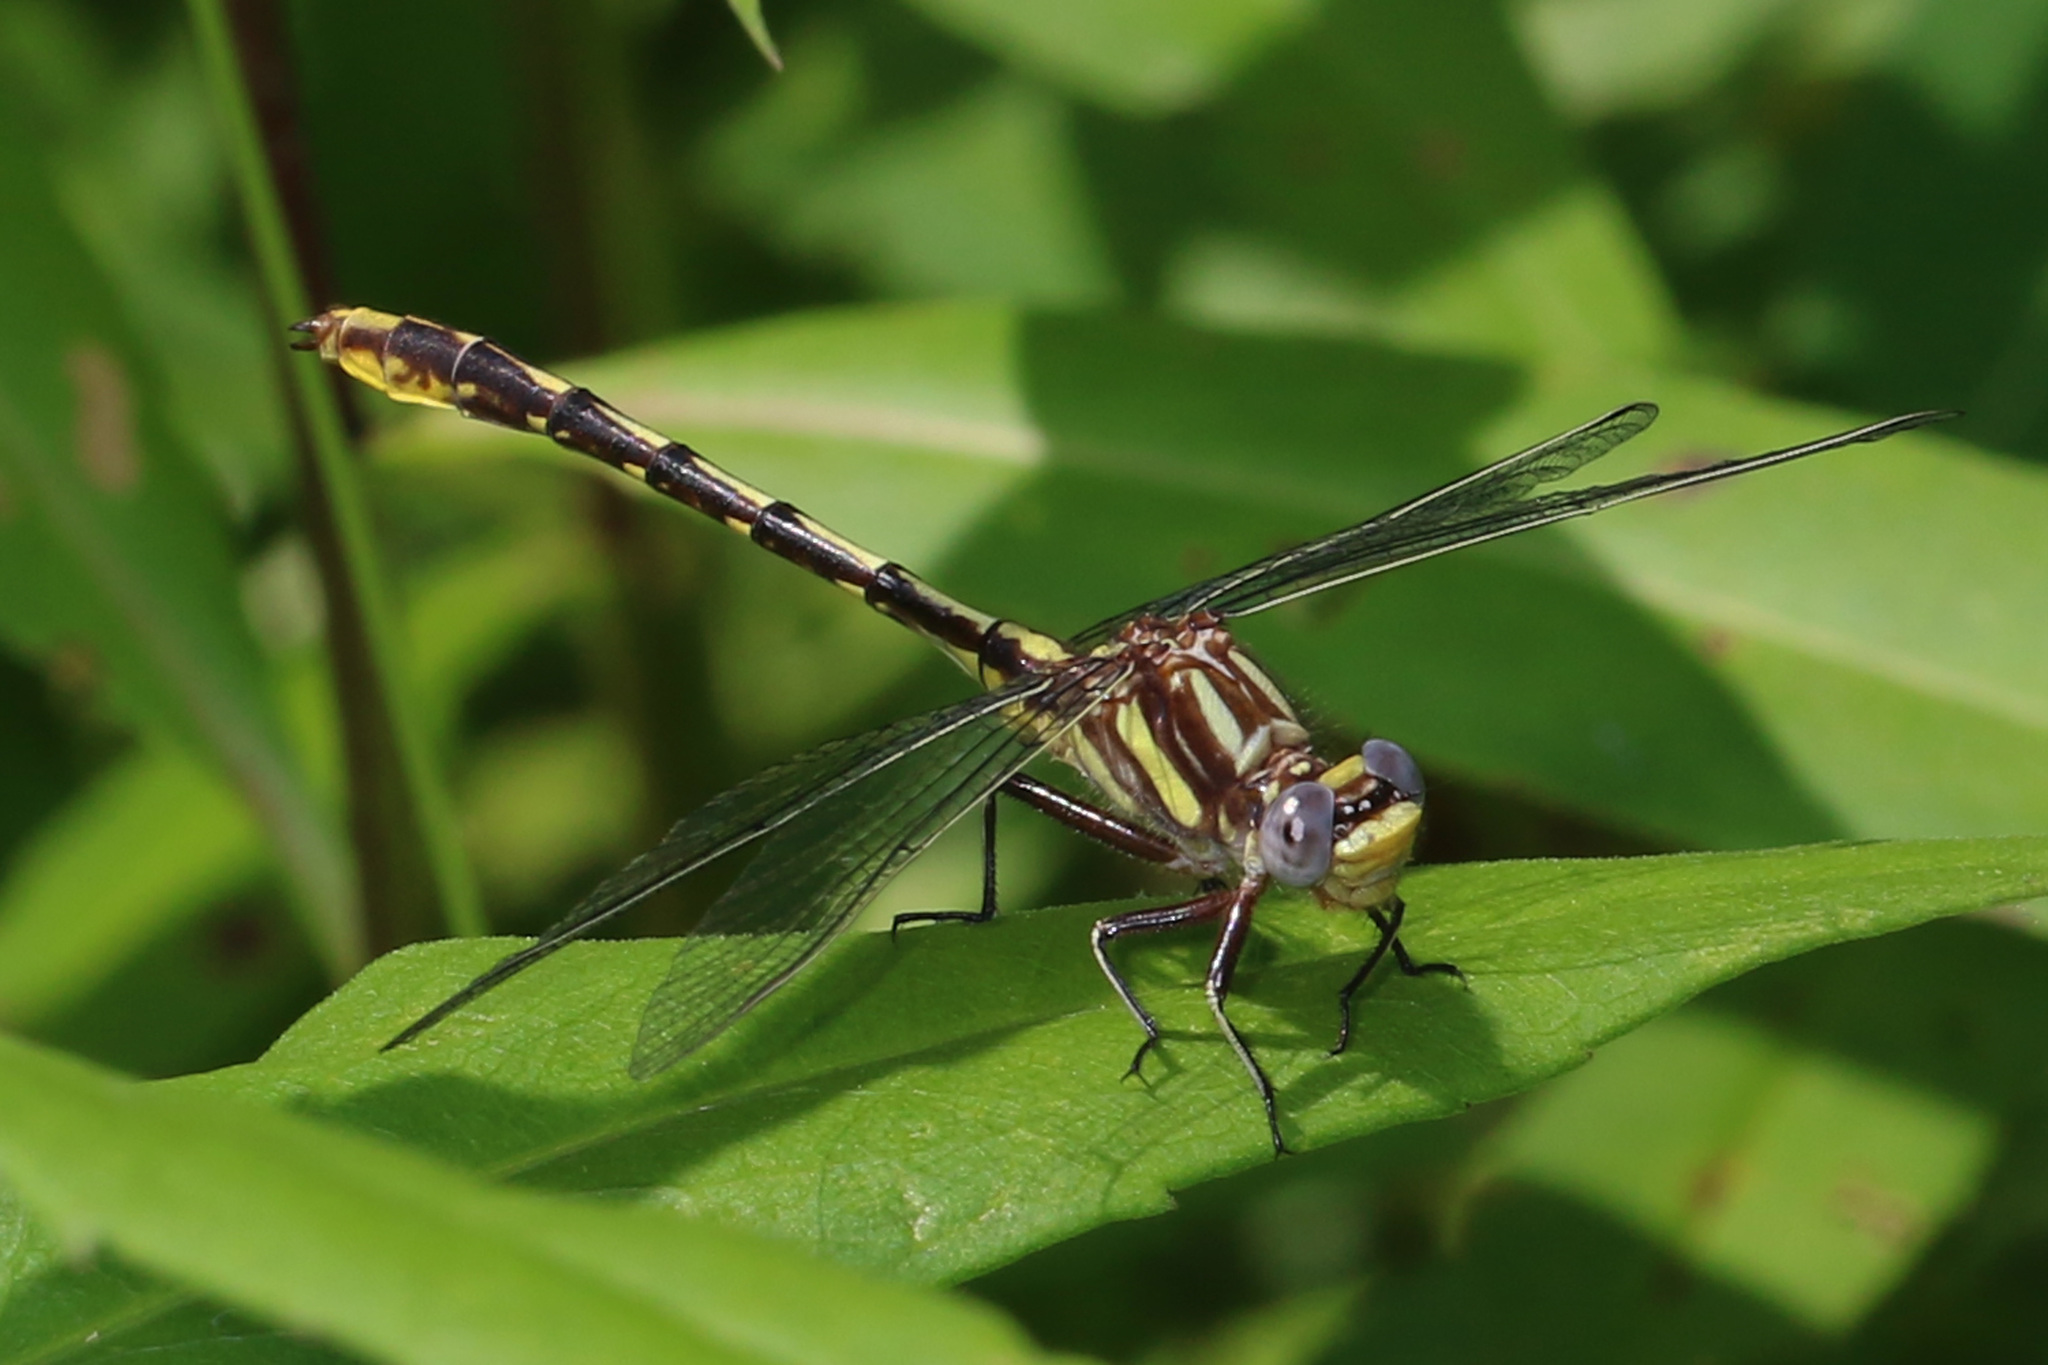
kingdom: Animalia
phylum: Arthropoda
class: Insecta
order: Odonata
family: Gomphidae
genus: Phanogomphus
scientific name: Phanogomphus exilis
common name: Lancet clubtail
